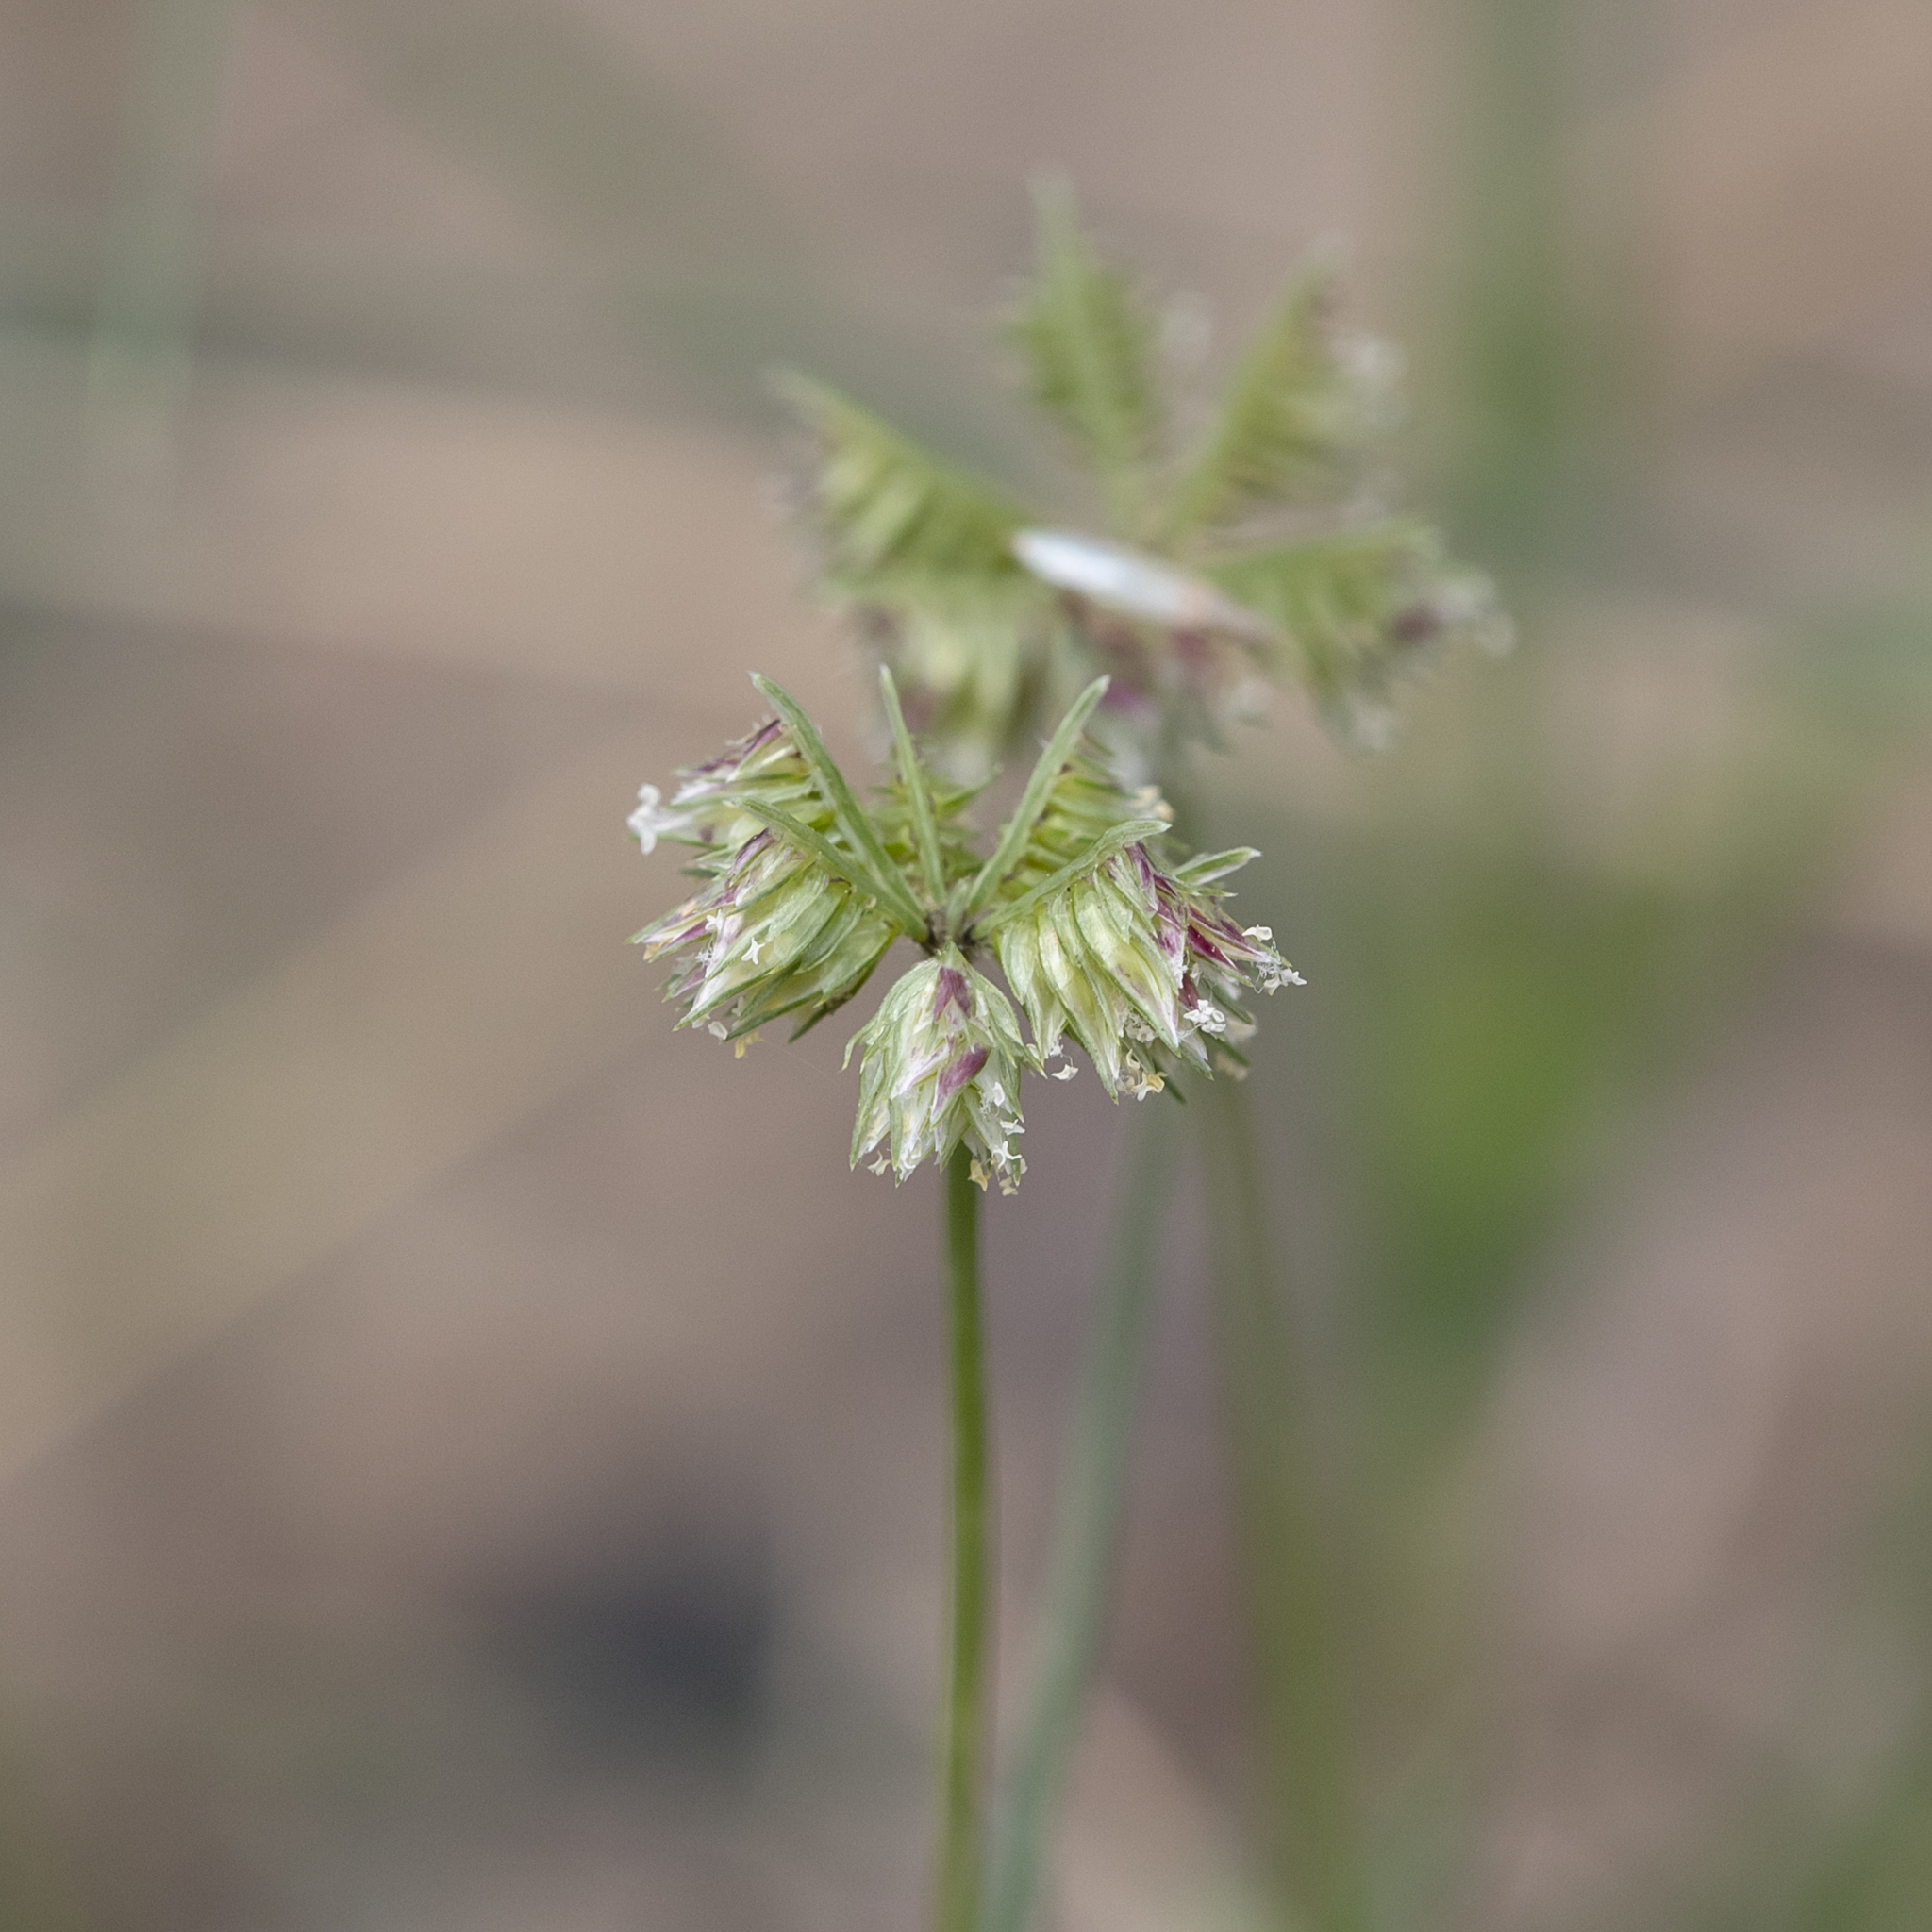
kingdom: Plantae
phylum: Tracheophyta
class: Liliopsida
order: Poales
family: Poaceae
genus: Dactyloctenium
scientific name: Dactyloctenium radulans
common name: Button-grass
